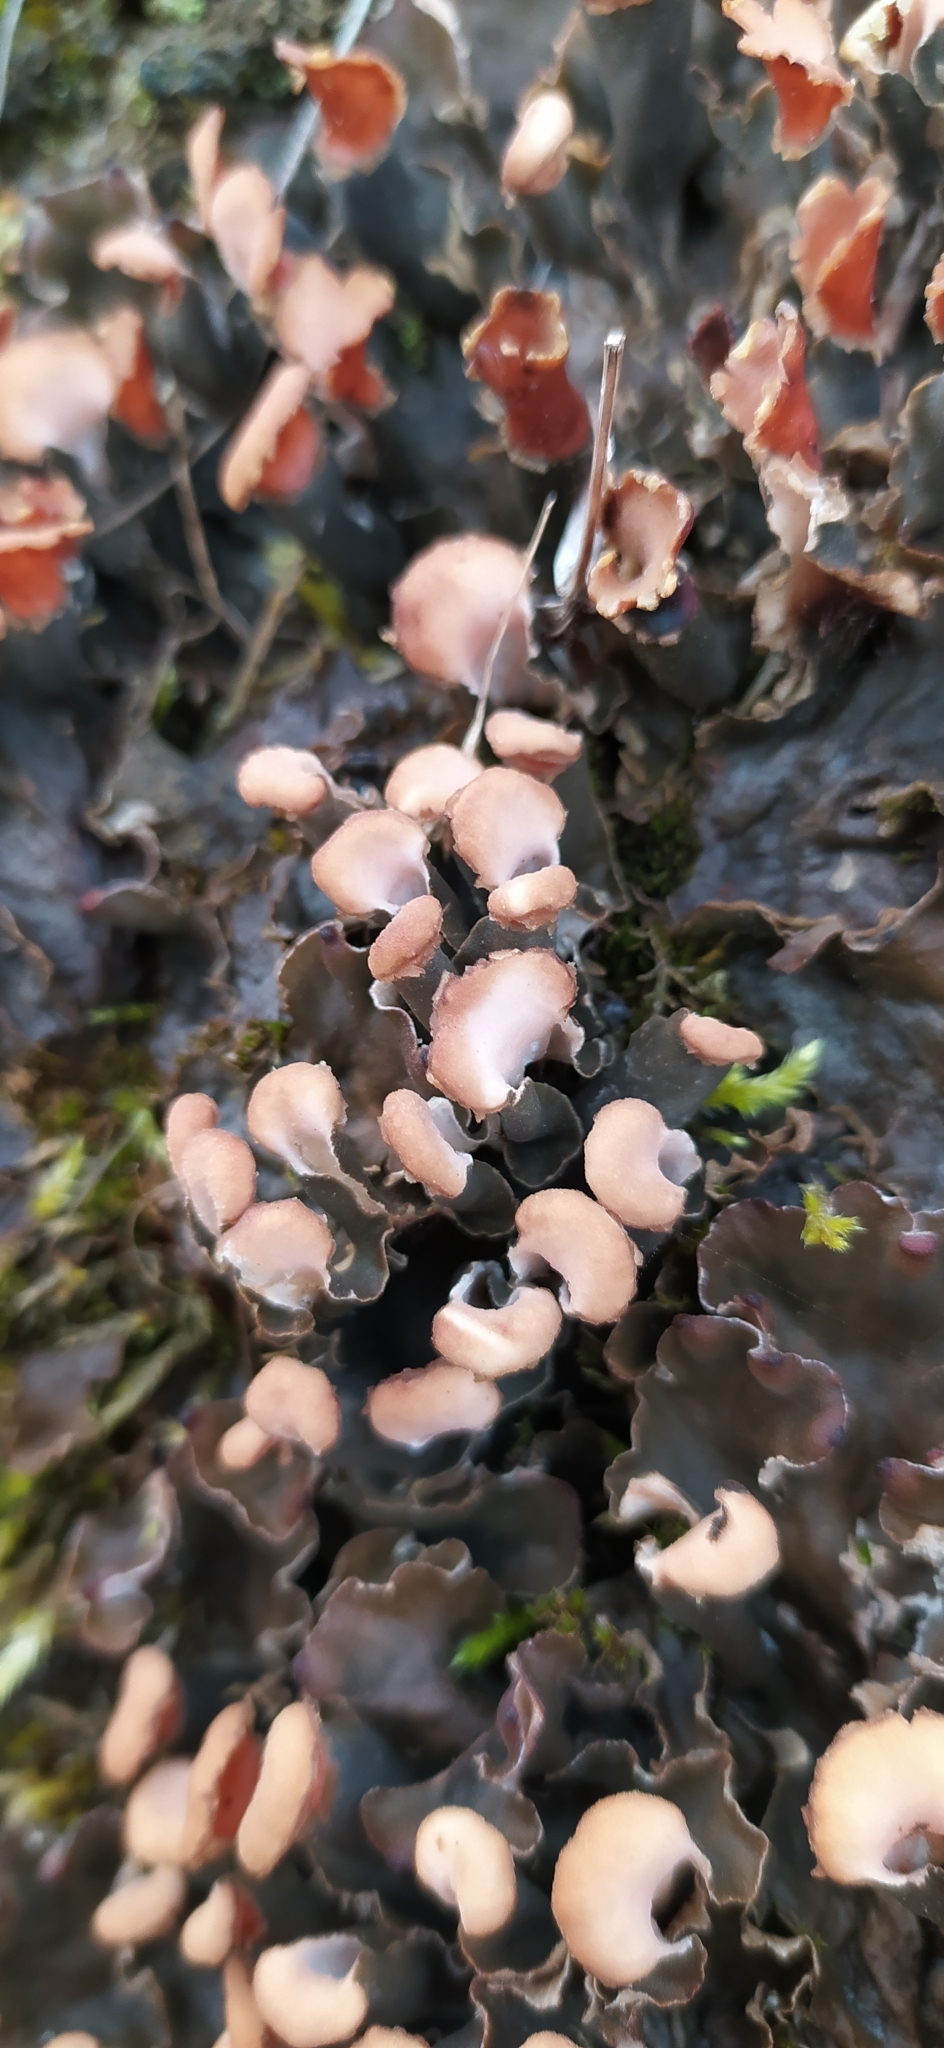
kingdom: Fungi
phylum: Ascomycota
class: Lecanoromycetes
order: Peltigerales
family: Peltigeraceae
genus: Peltigera
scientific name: Peltigera rufescens
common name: Field dog lichen
